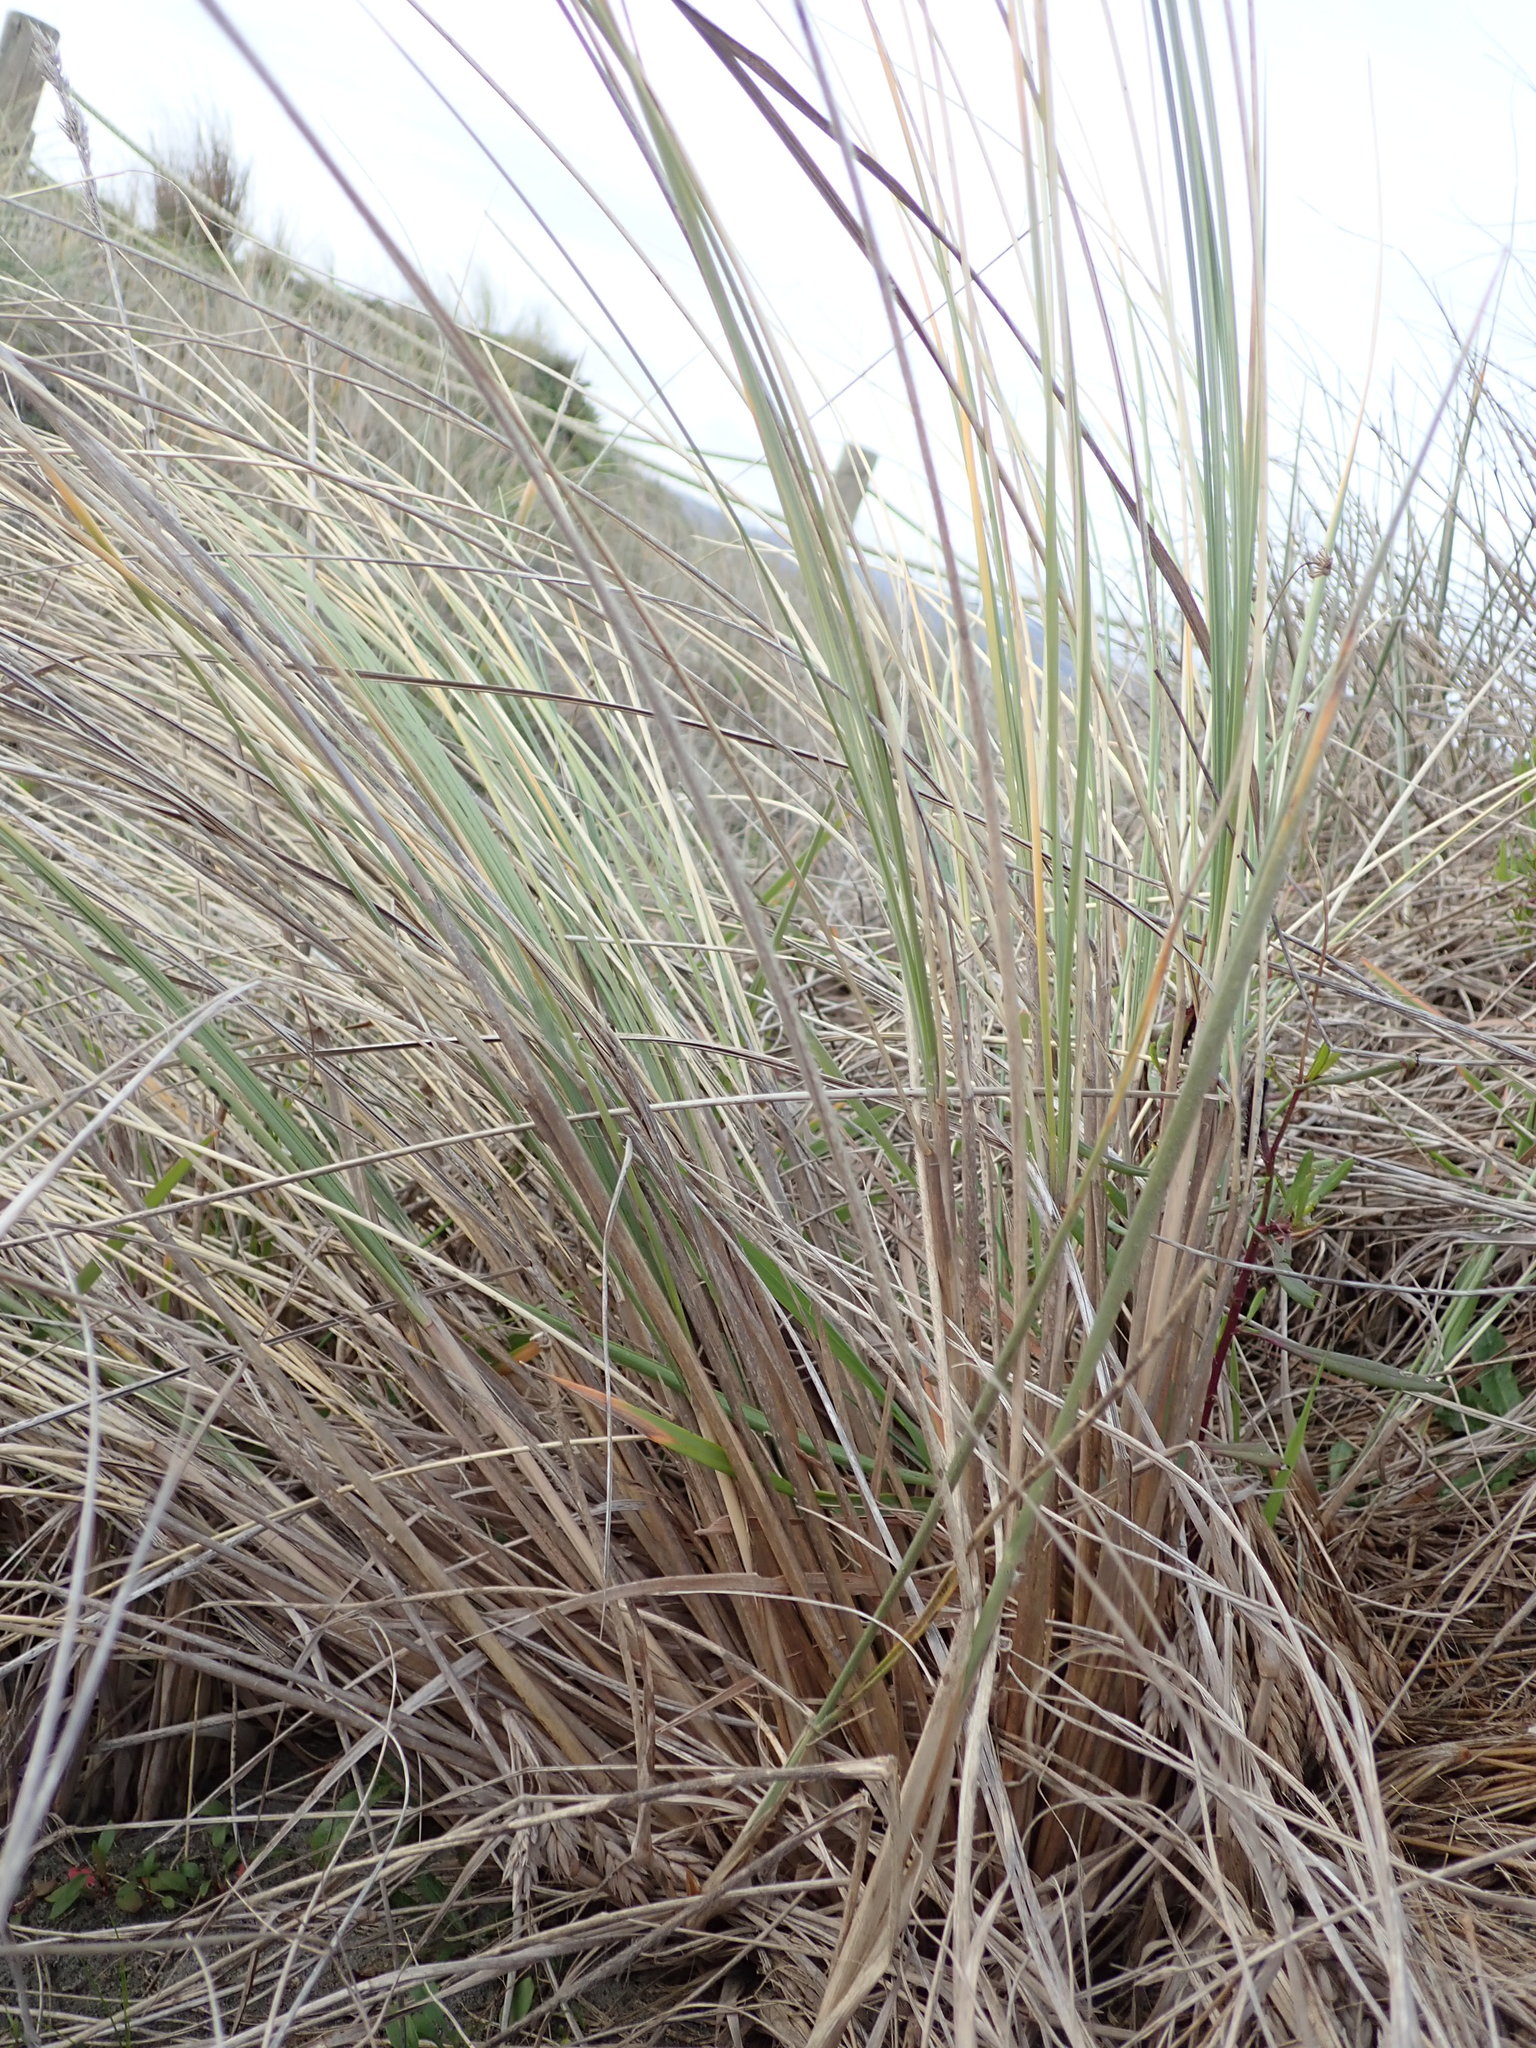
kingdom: Plantae
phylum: Tracheophyta
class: Liliopsida
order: Poales
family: Poaceae
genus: Calamagrostis
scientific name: Calamagrostis arenaria
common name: European beachgrass
